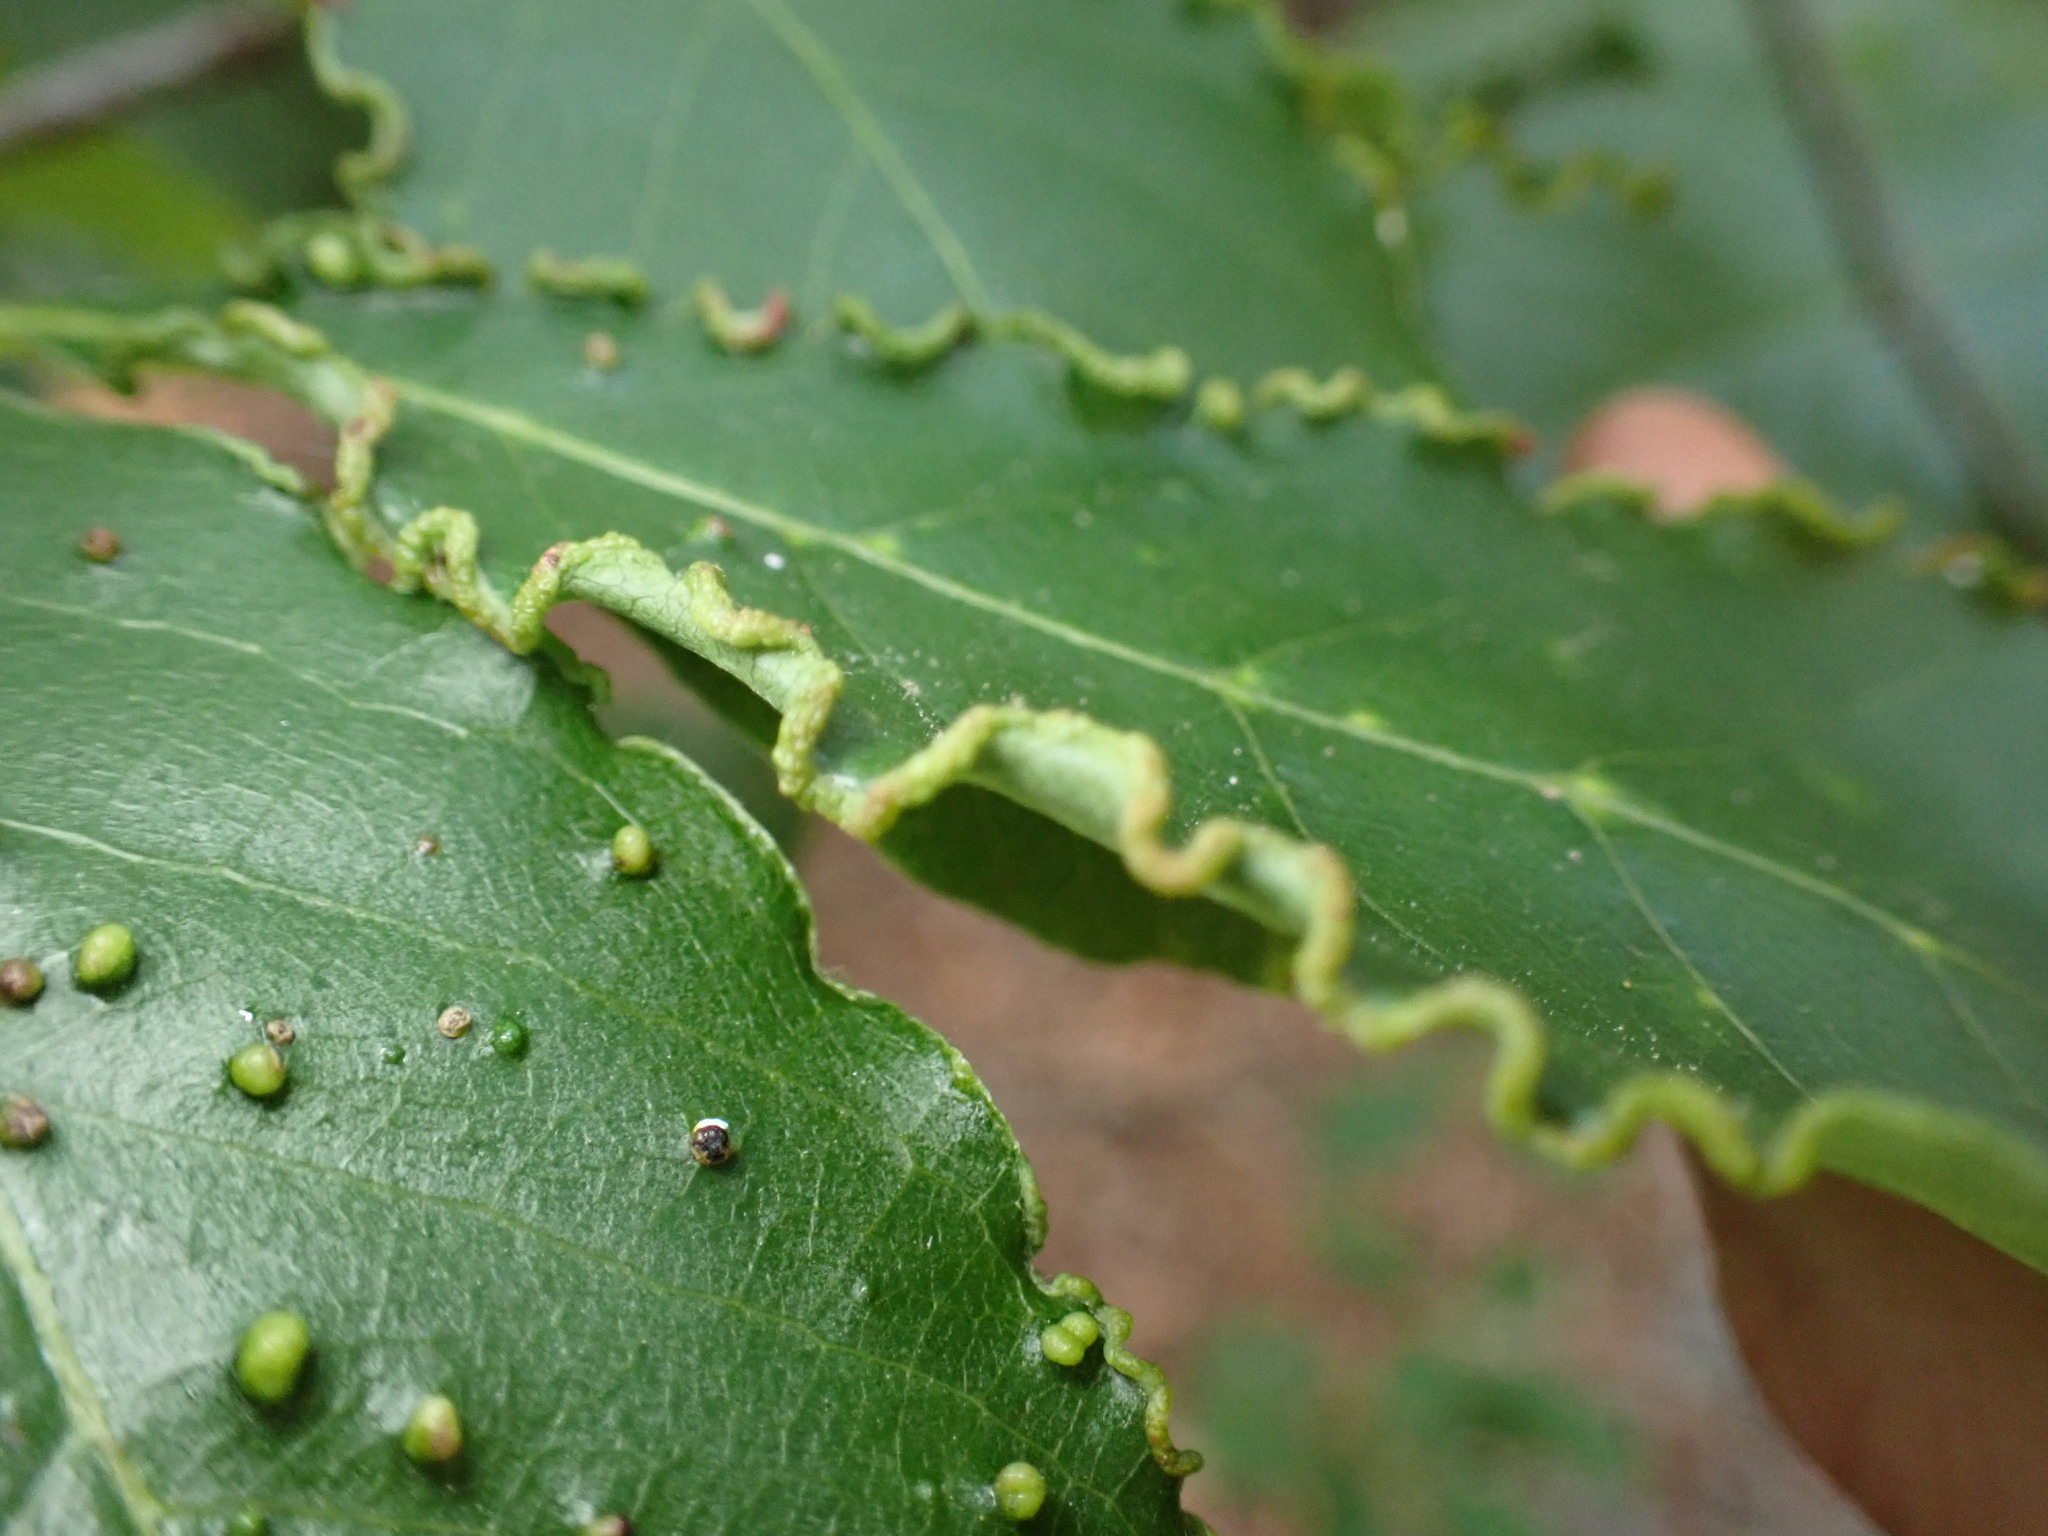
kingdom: Animalia
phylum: Arthropoda
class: Arachnida
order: Trombidiformes
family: Eriophyidae
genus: Aceria
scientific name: Aceria
